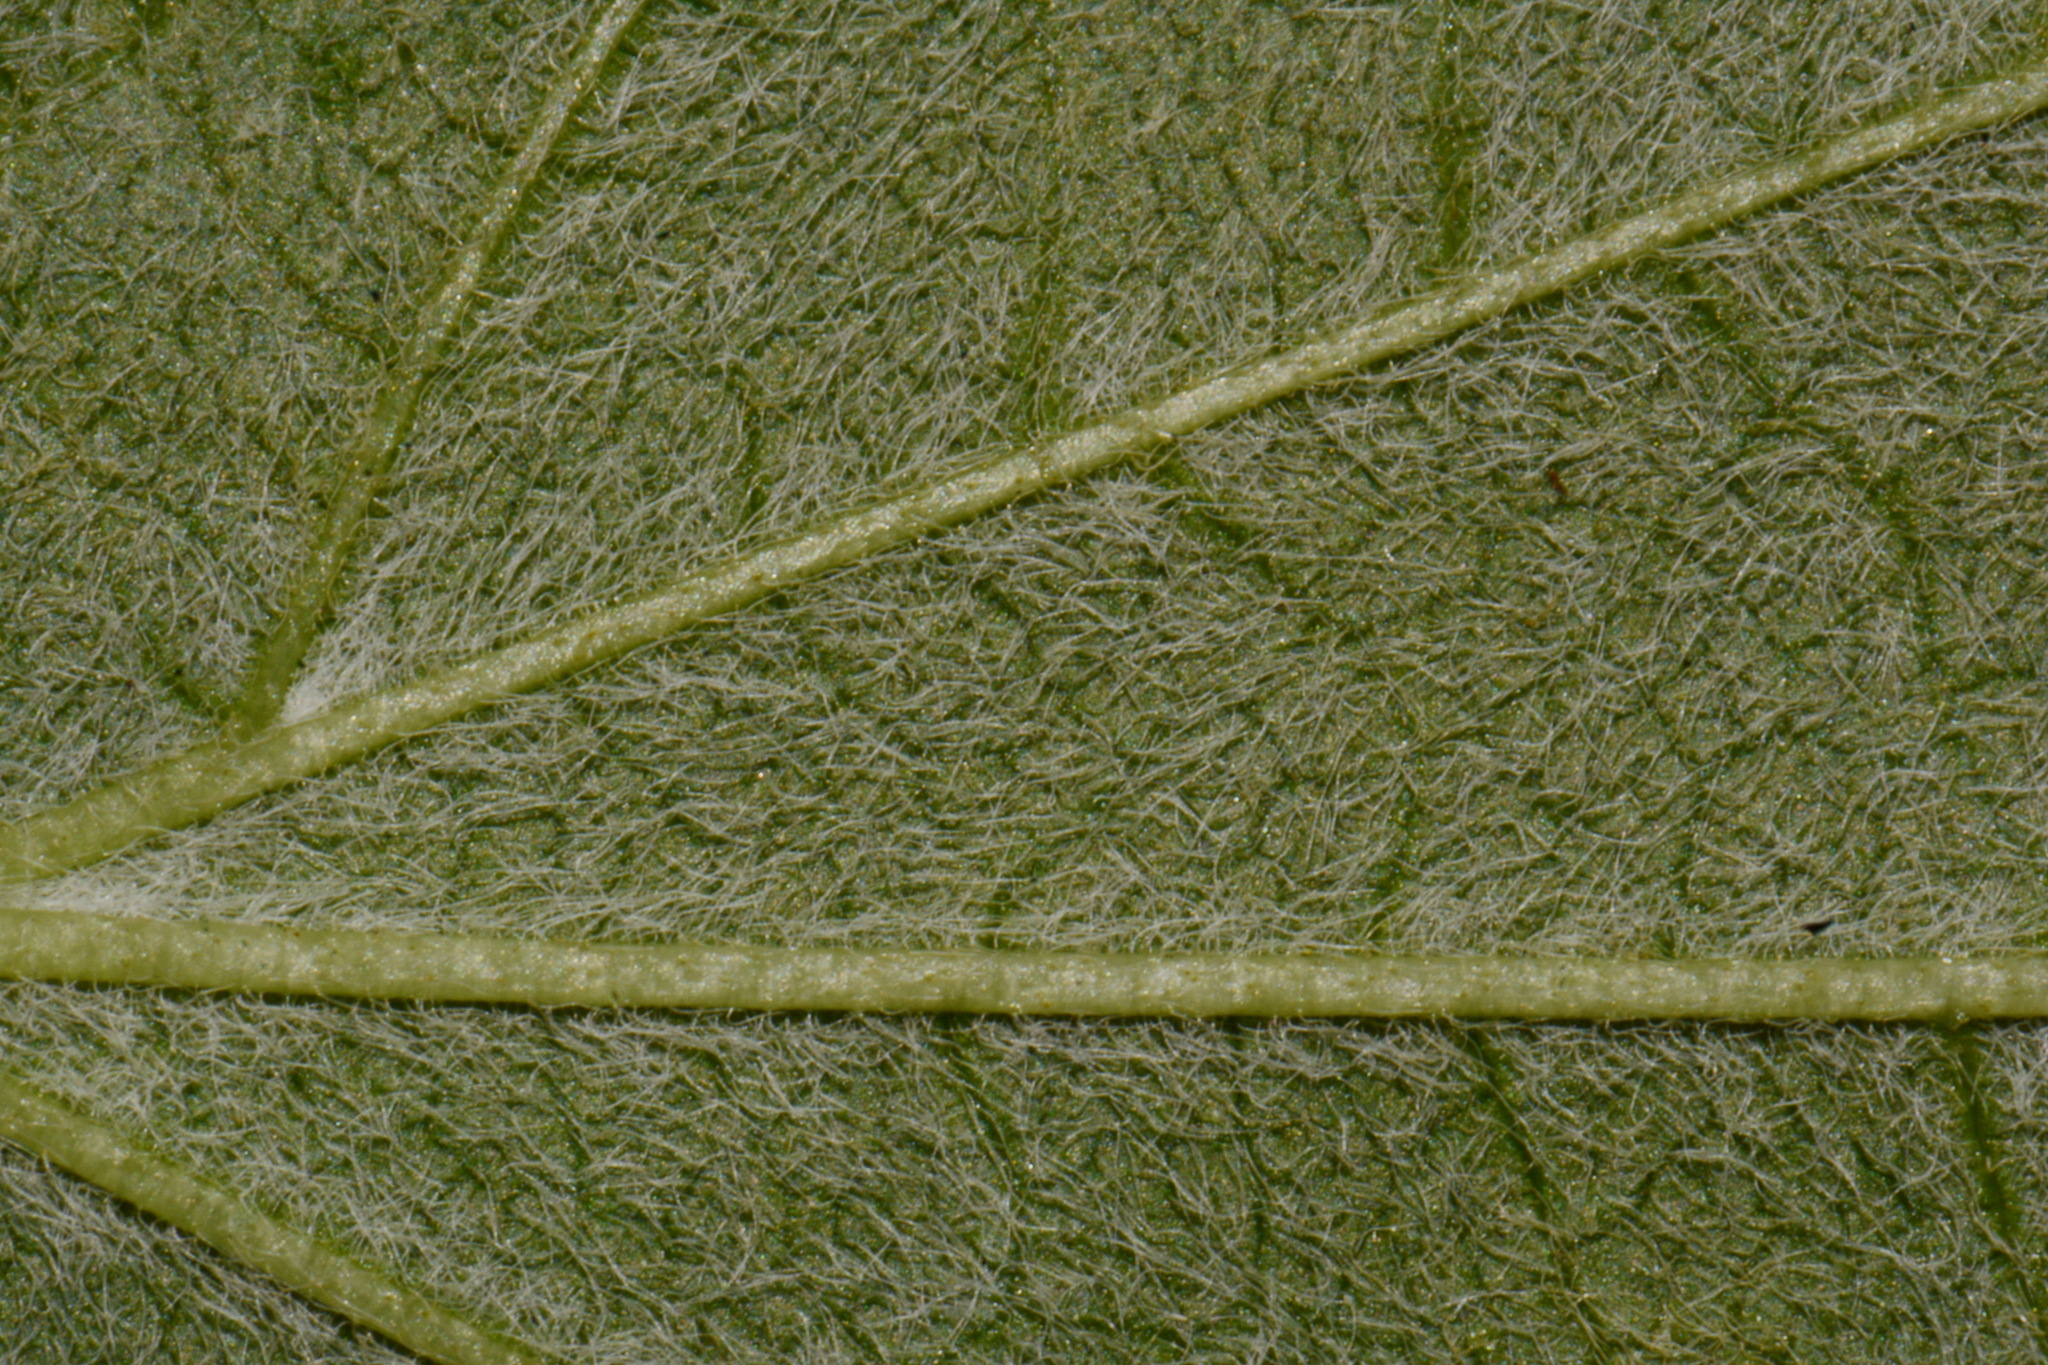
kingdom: Plantae
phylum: Tracheophyta
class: Magnoliopsida
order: Cornales
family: Hydrangeaceae
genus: Philadelphus
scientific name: Philadelphus pubescens
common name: Broadleaf mock orange
